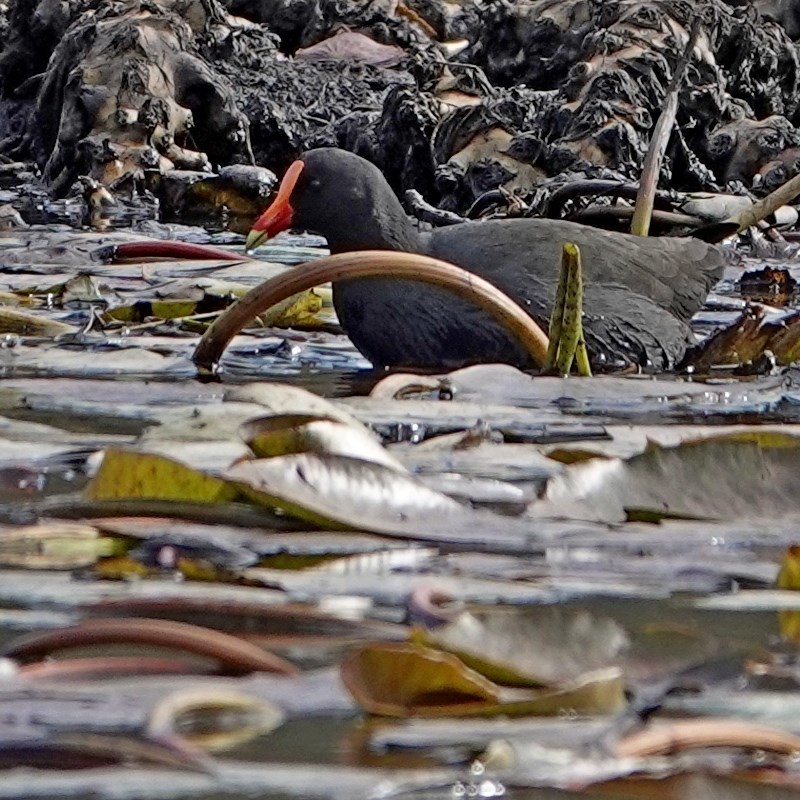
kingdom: Animalia
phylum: Chordata
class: Aves
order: Gruiformes
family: Rallidae
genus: Gallinula
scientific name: Gallinula tenebrosa
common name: Dusky moorhen
